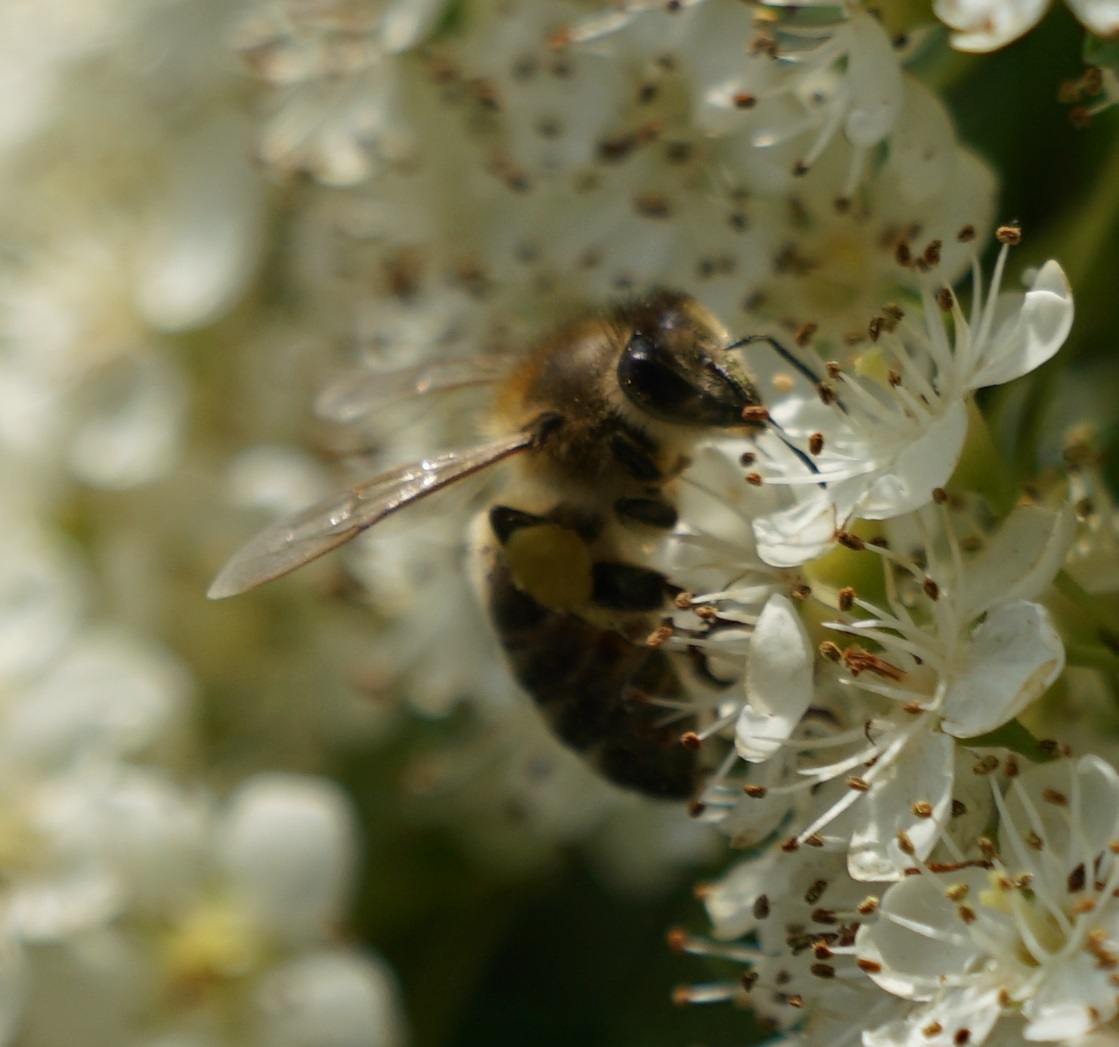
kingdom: Animalia
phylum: Arthropoda
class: Insecta
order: Hymenoptera
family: Apidae
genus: Apis
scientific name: Apis mellifera
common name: Honey bee
